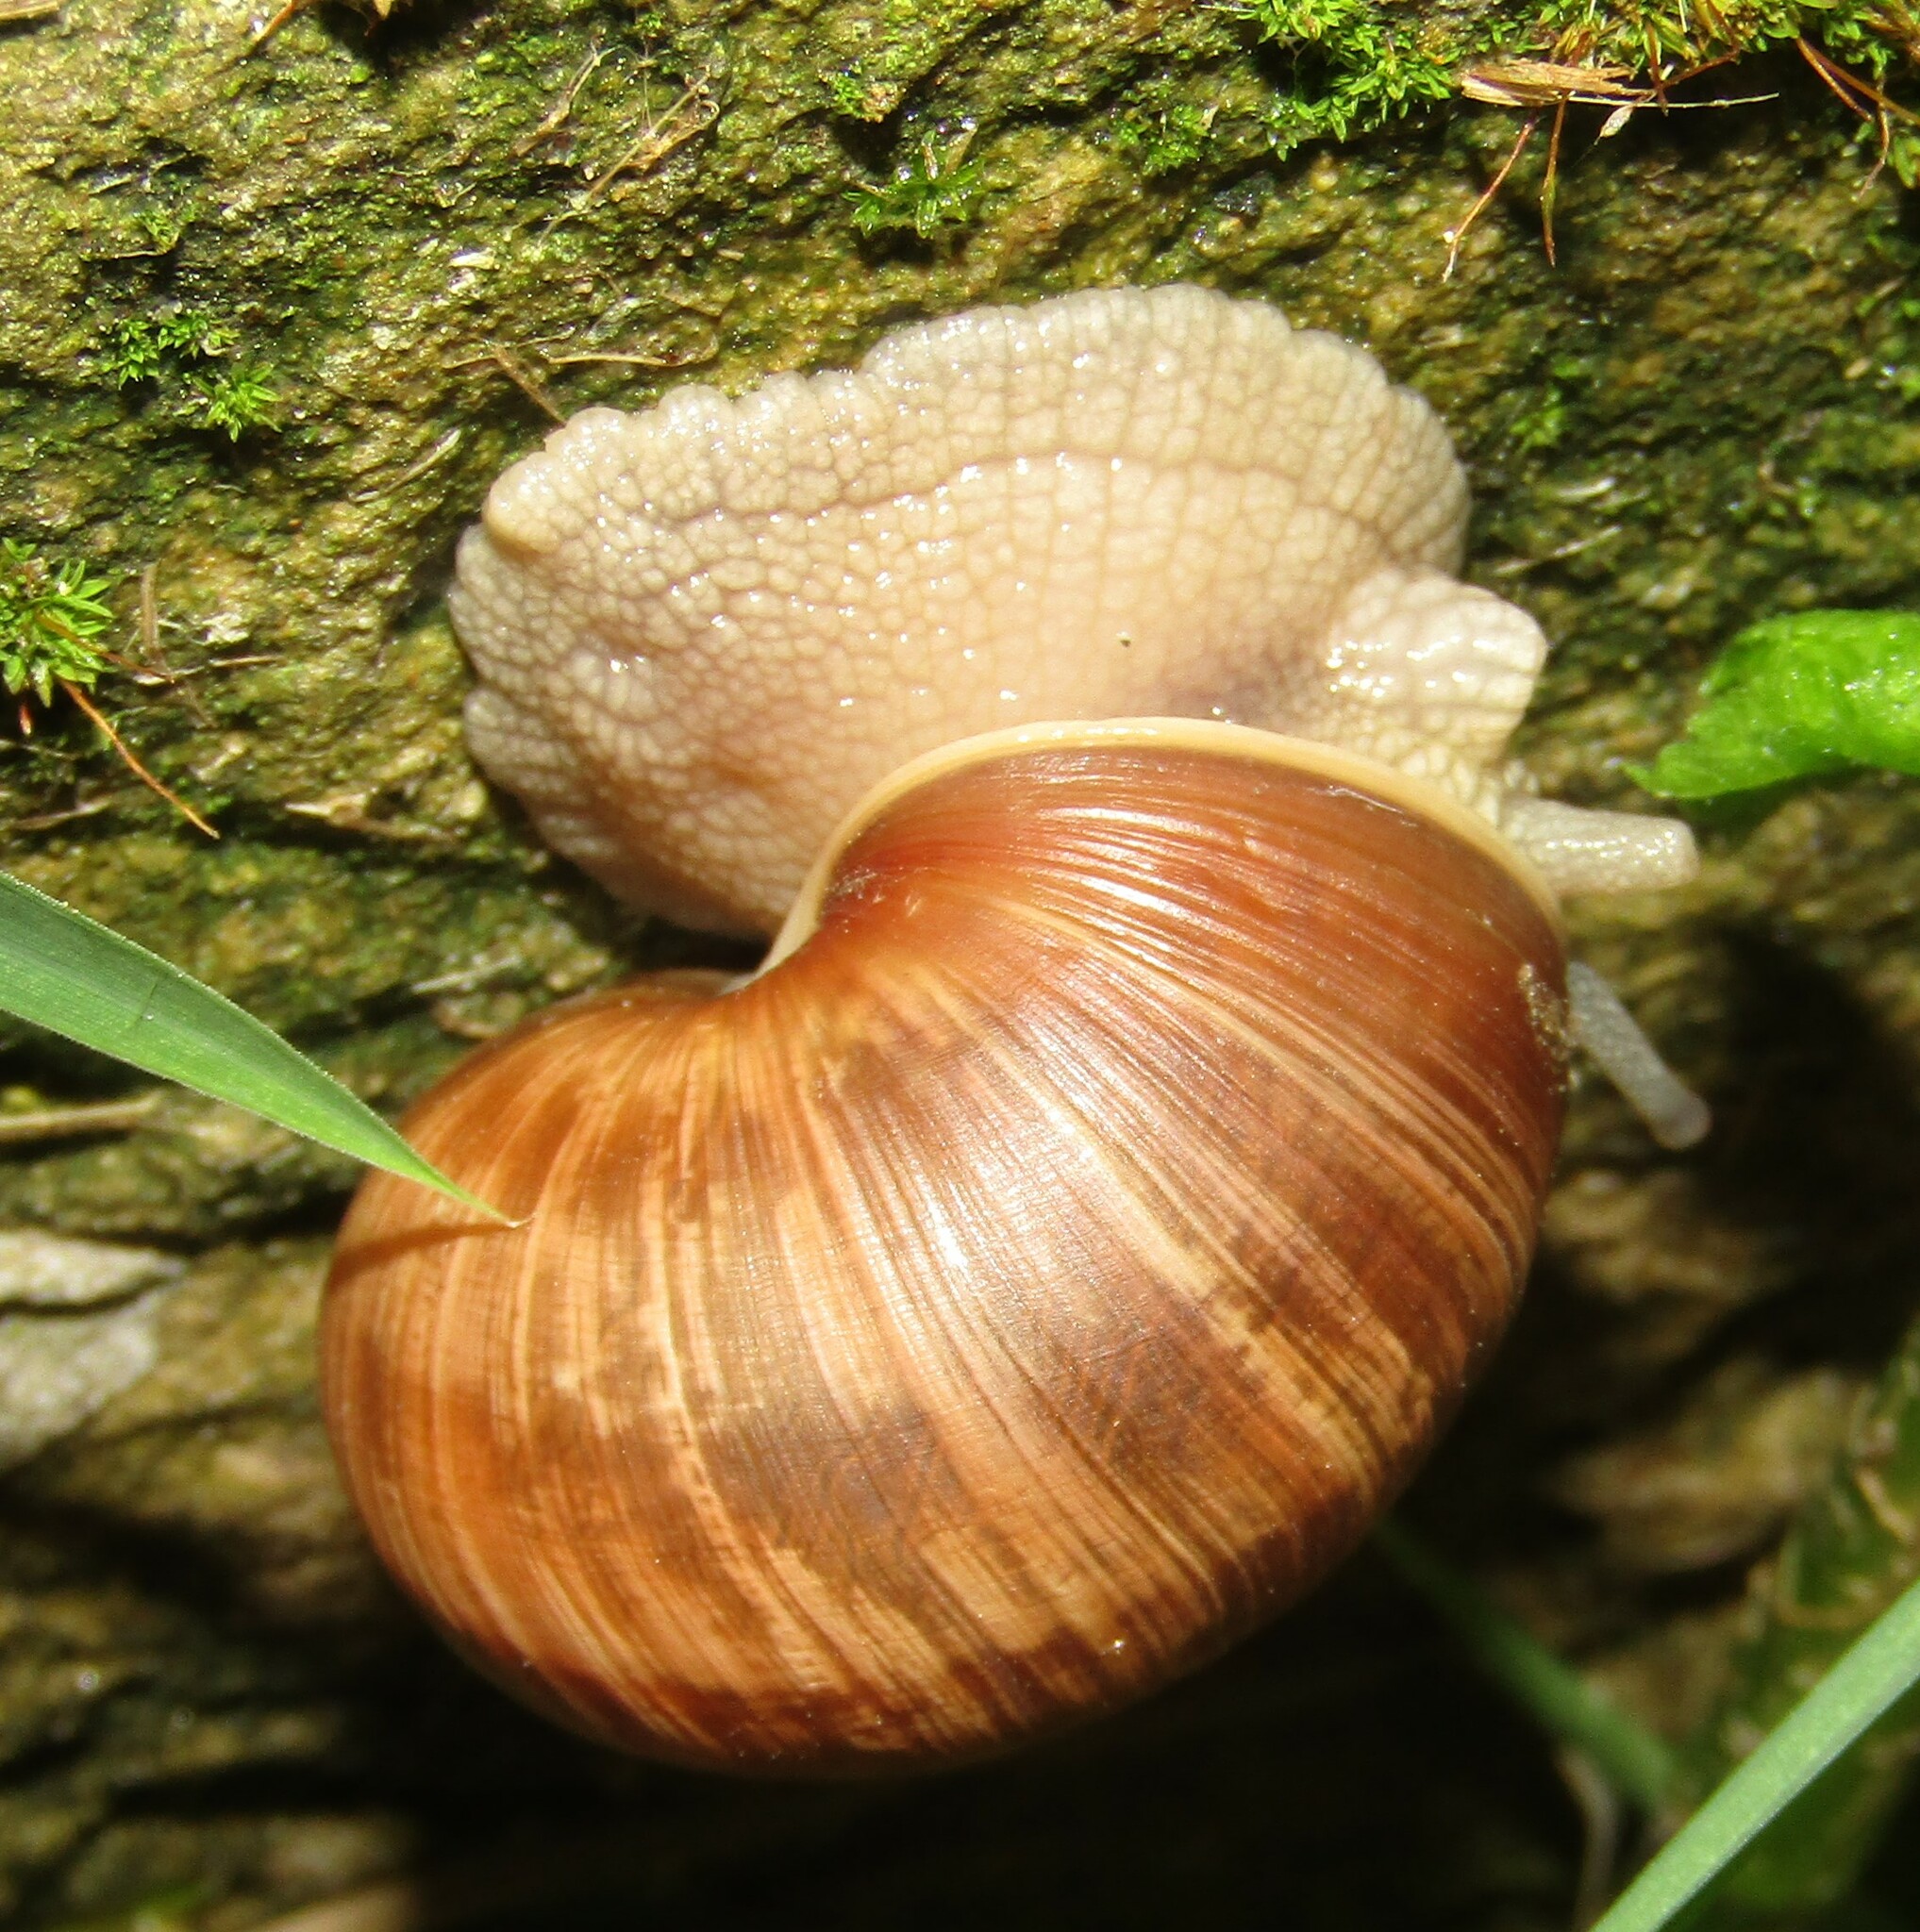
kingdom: Animalia
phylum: Mollusca
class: Gastropoda
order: Stylommatophora
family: Helicidae
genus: Helix
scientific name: Helix pomatia
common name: Roman snail
